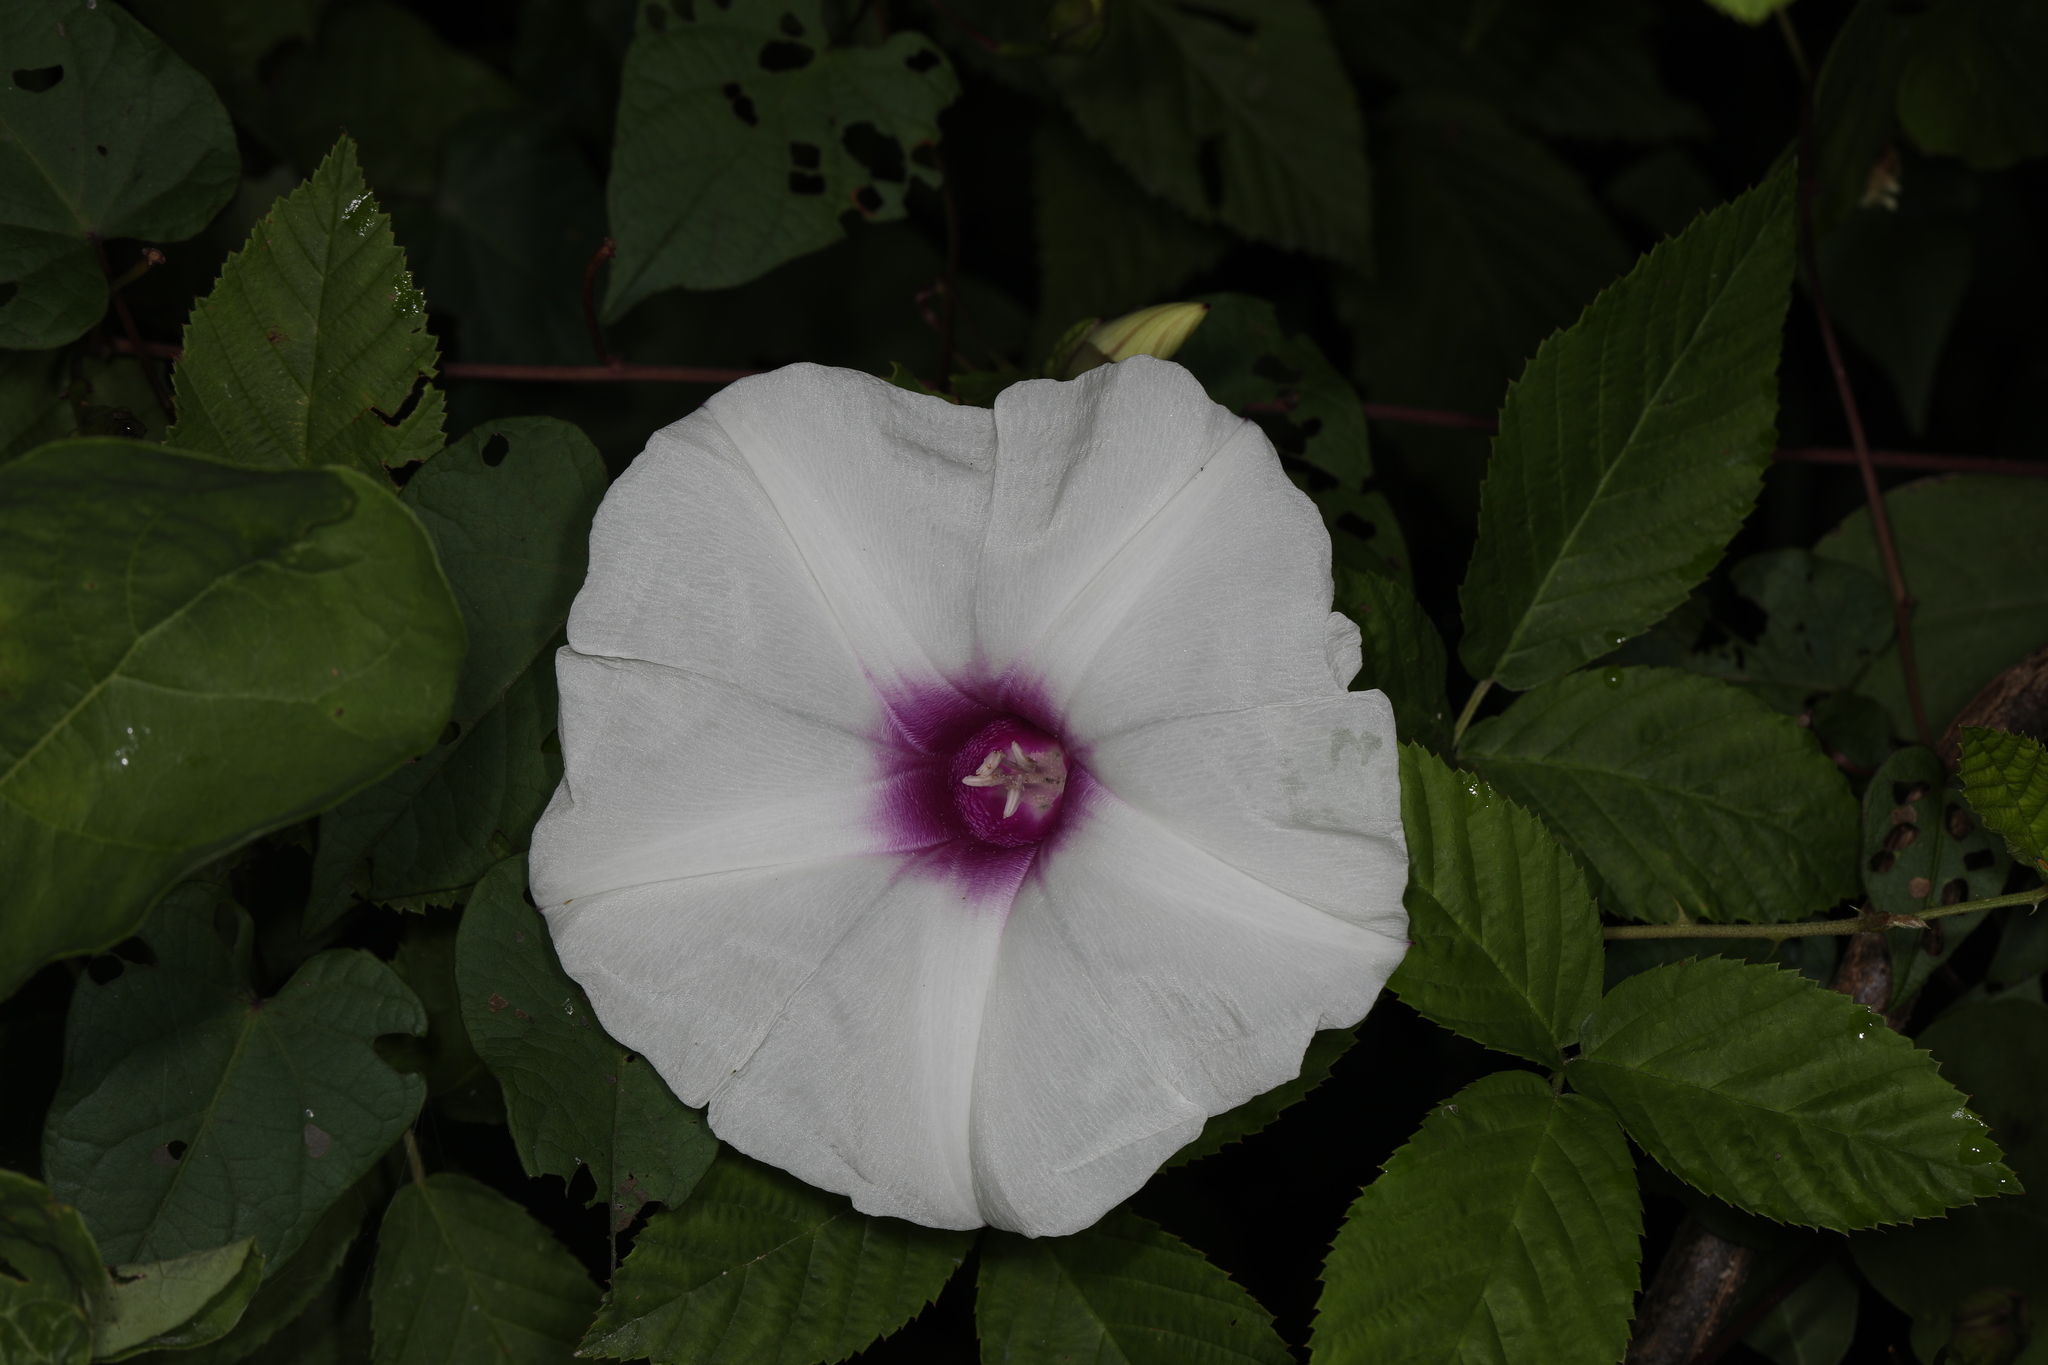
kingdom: Plantae
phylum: Tracheophyta
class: Magnoliopsida
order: Solanales
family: Convolvulaceae
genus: Ipomoea
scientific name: Ipomoea pandurata
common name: Man-of-the-earth
